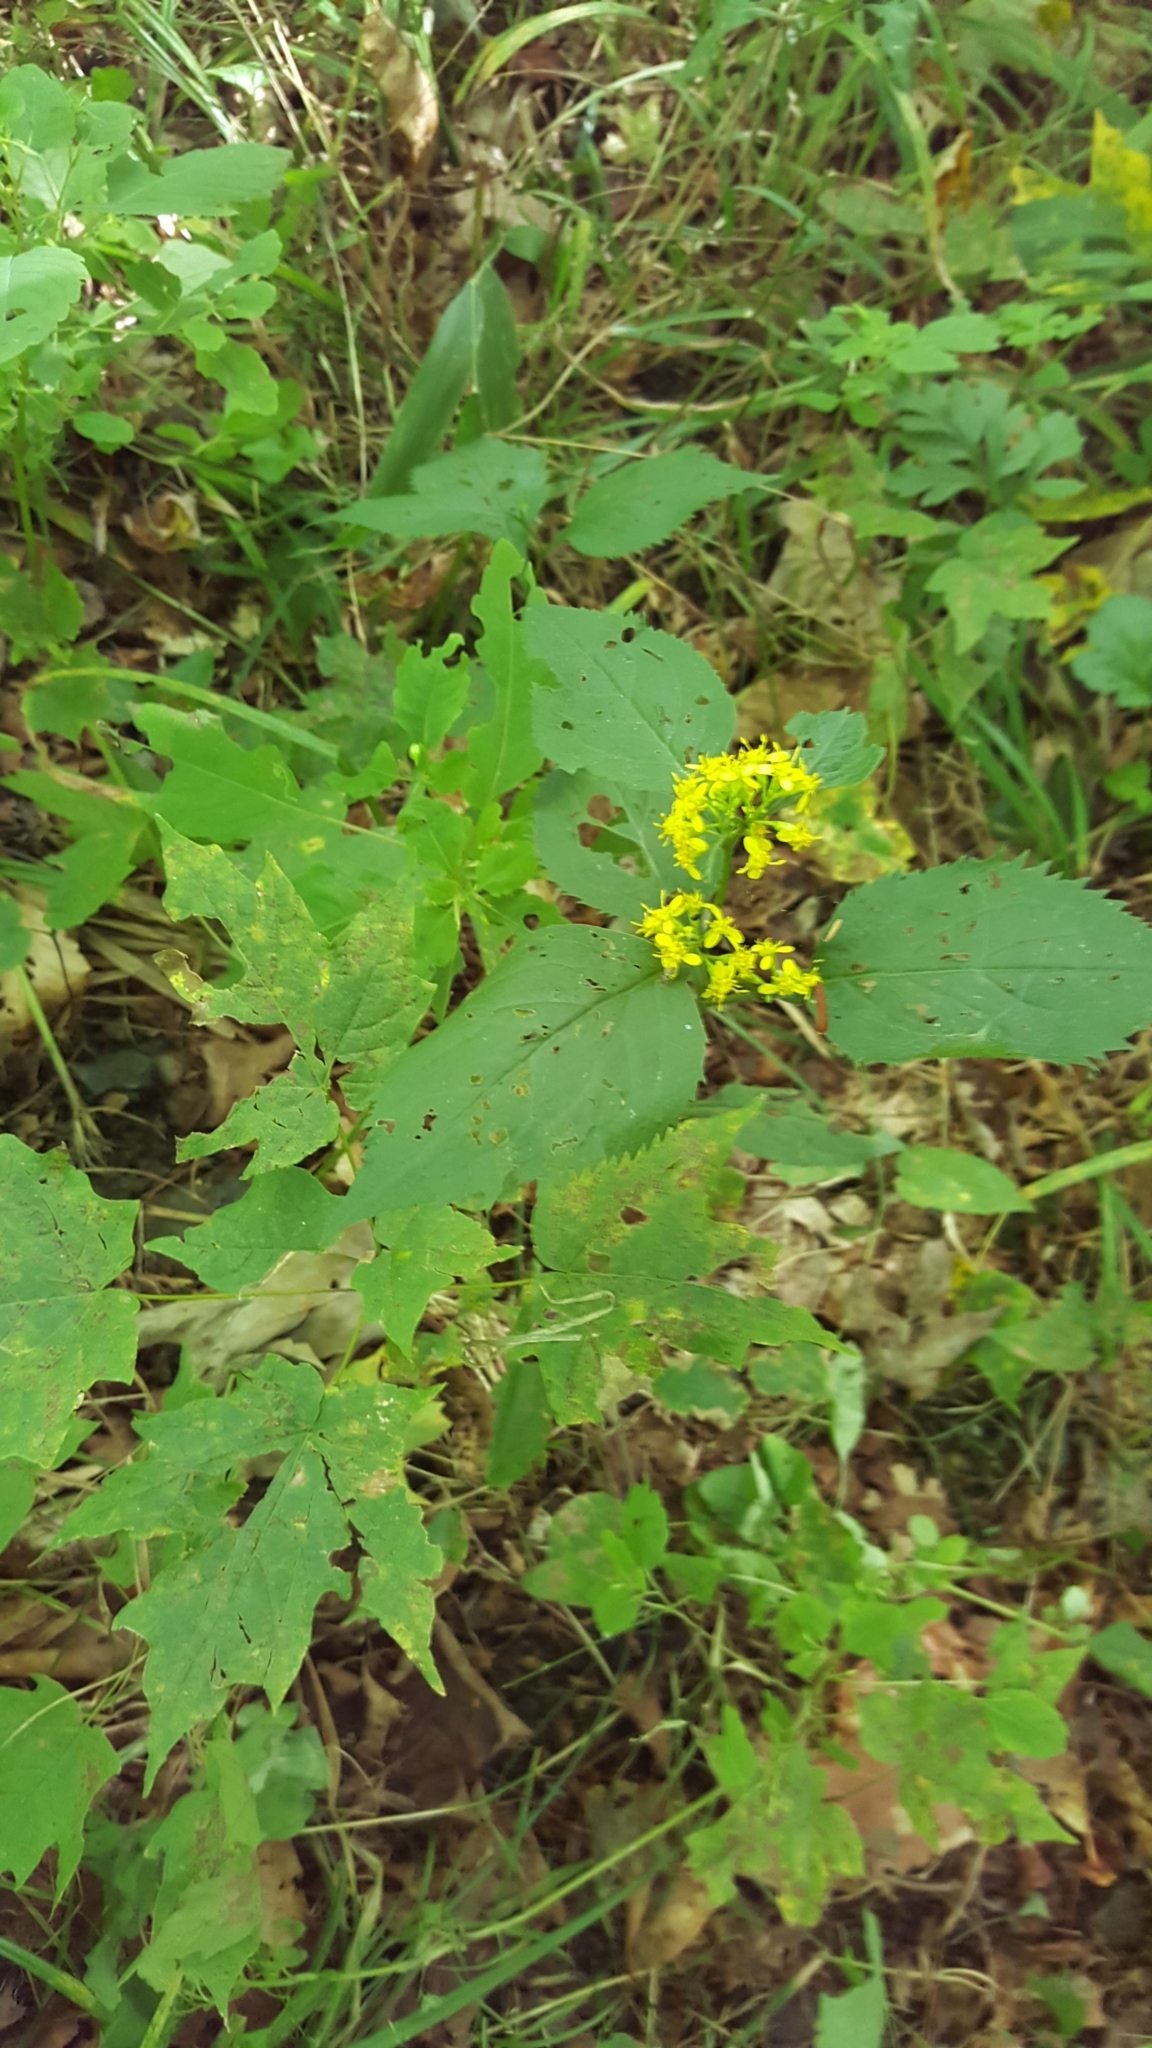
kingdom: Plantae
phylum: Tracheophyta
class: Magnoliopsida
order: Asterales
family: Asteraceae
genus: Solidago
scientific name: Solidago flexicaulis
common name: Zig-zag goldenrod
